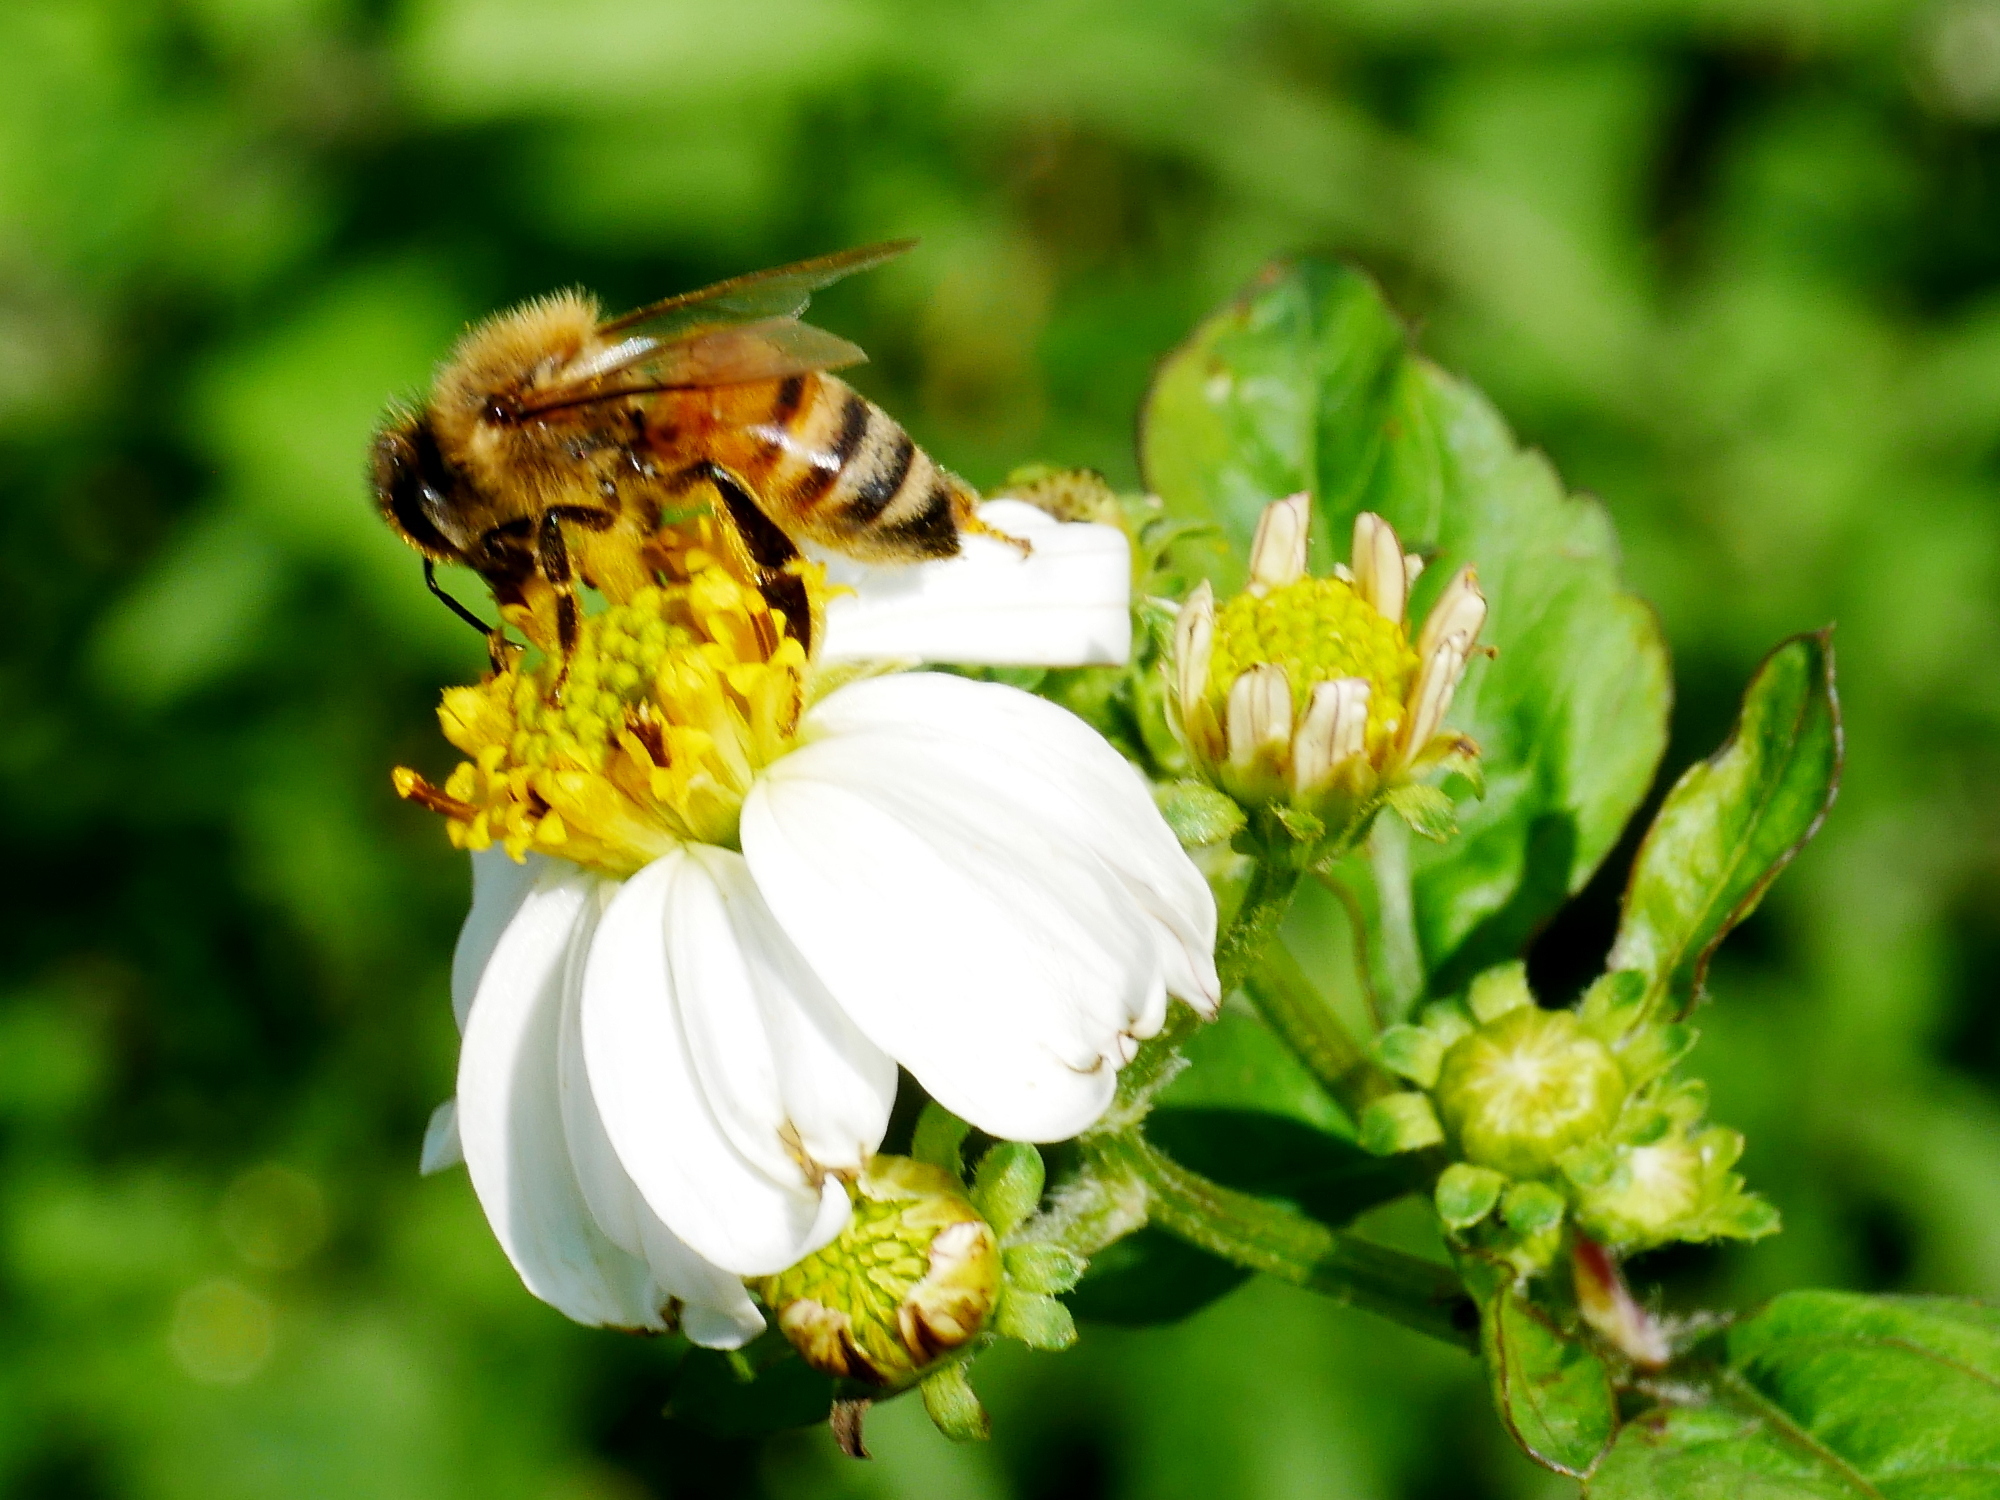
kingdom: Animalia
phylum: Arthropoda
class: Insecta
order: Hymenoptera
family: Apidae
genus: Apis
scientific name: Apis mellifera
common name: Honey bee
